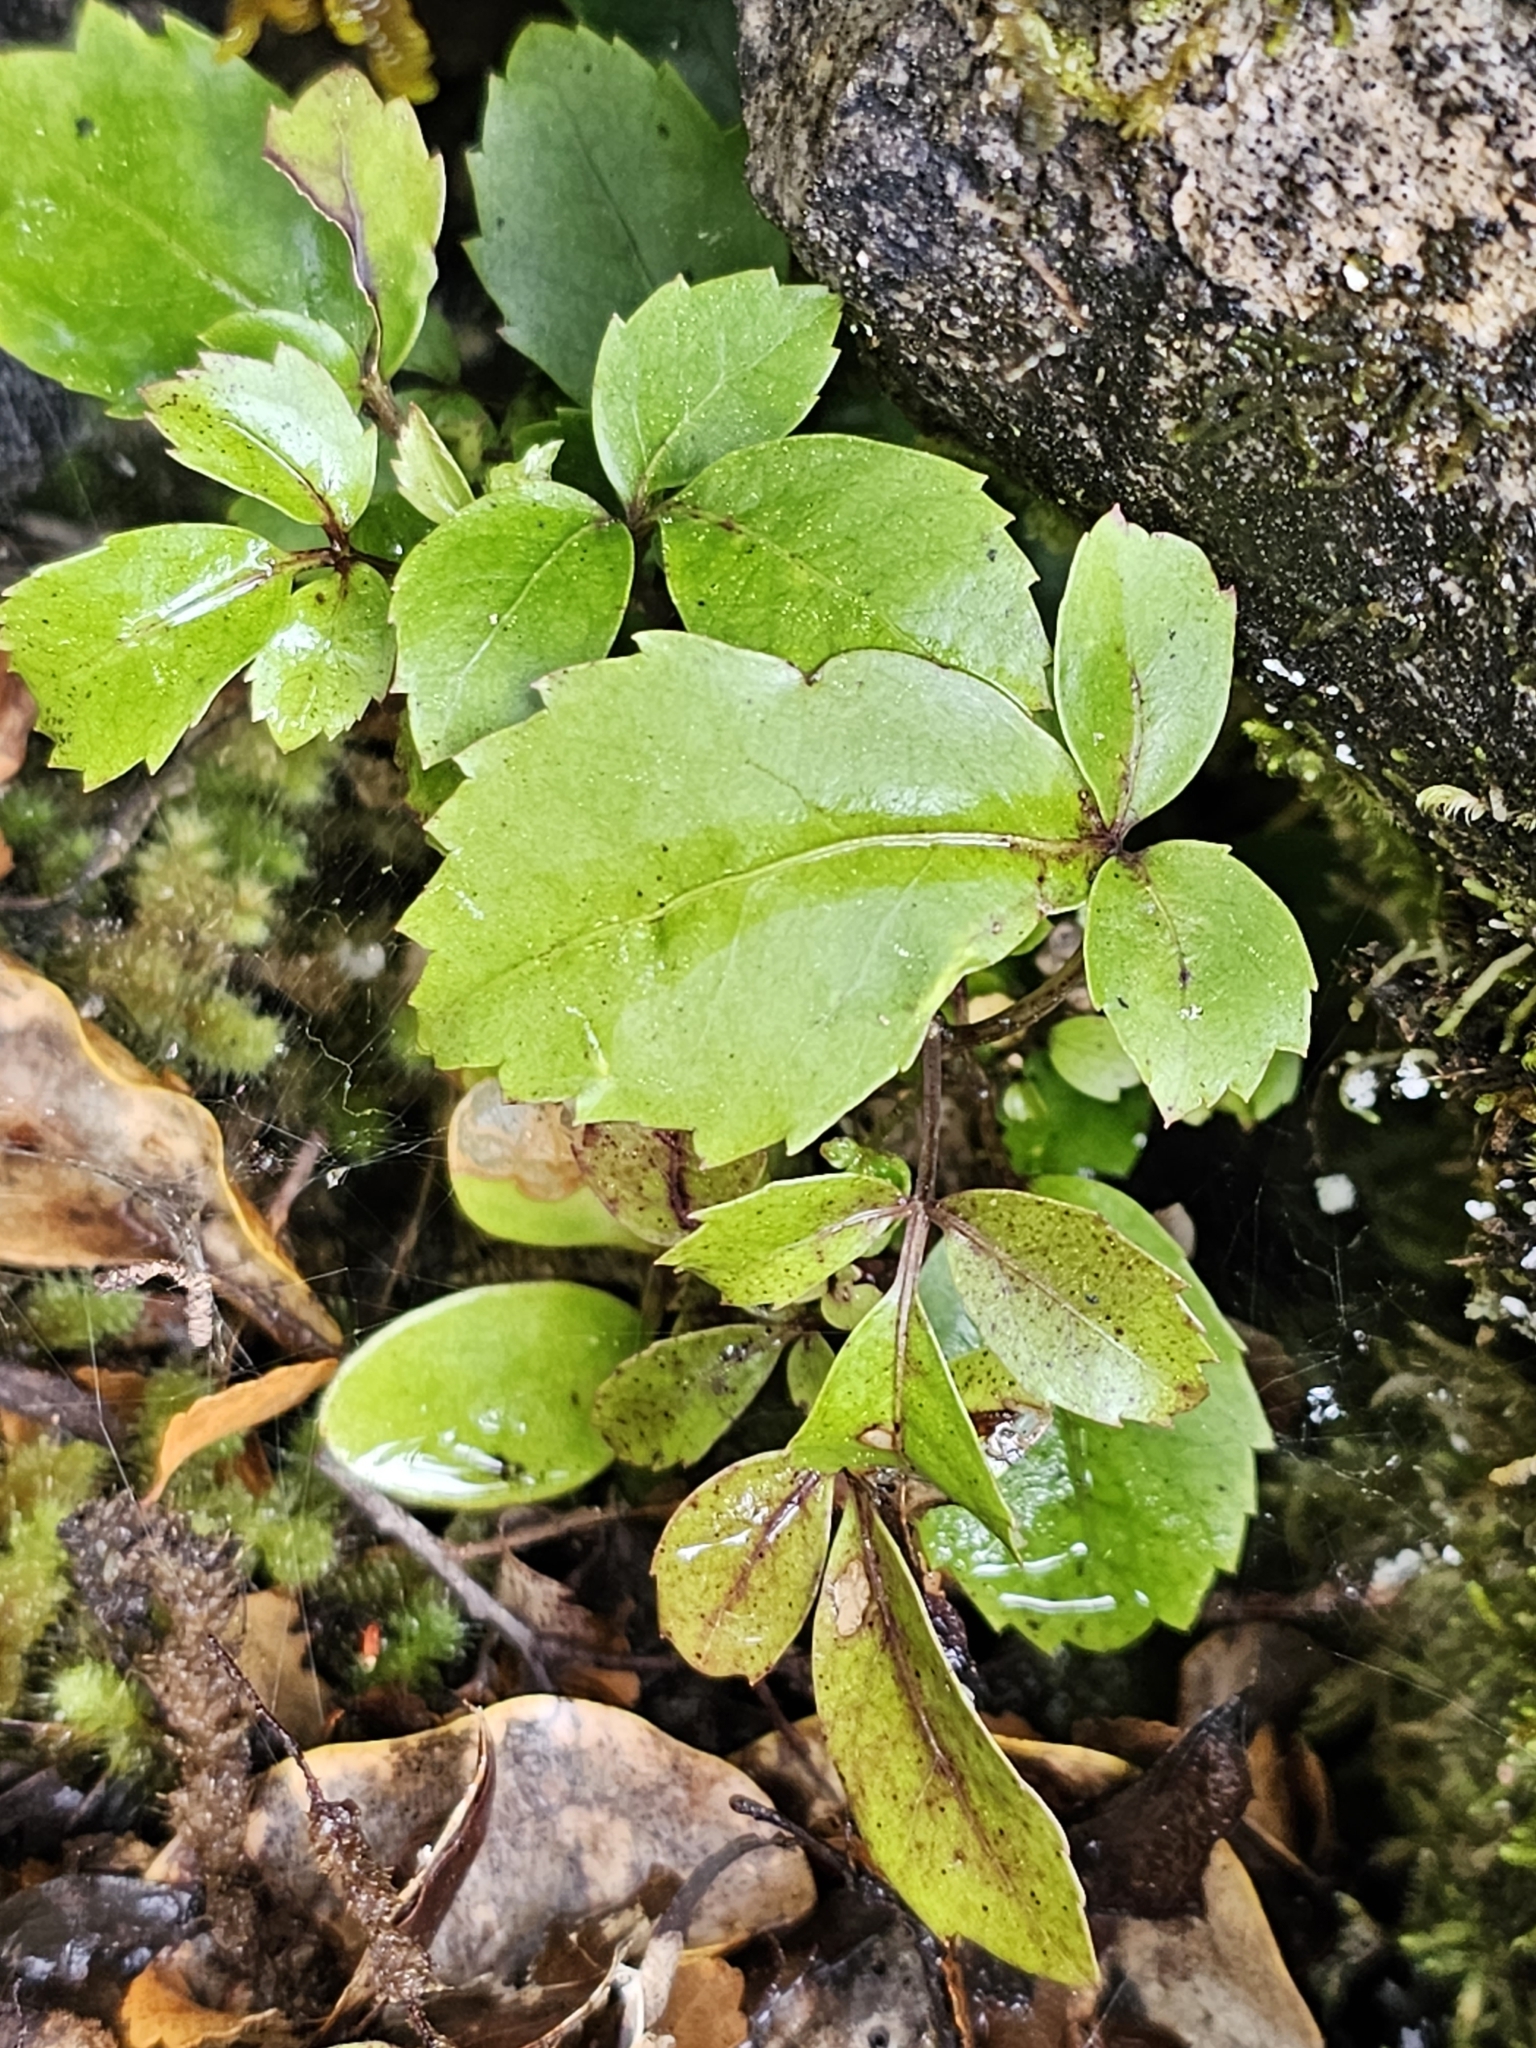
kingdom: Plantae
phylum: Tracheophyta
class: Magnoliopsida
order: Apiales
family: Araliaceae
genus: Neopanax
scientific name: Neopanax colensoi
